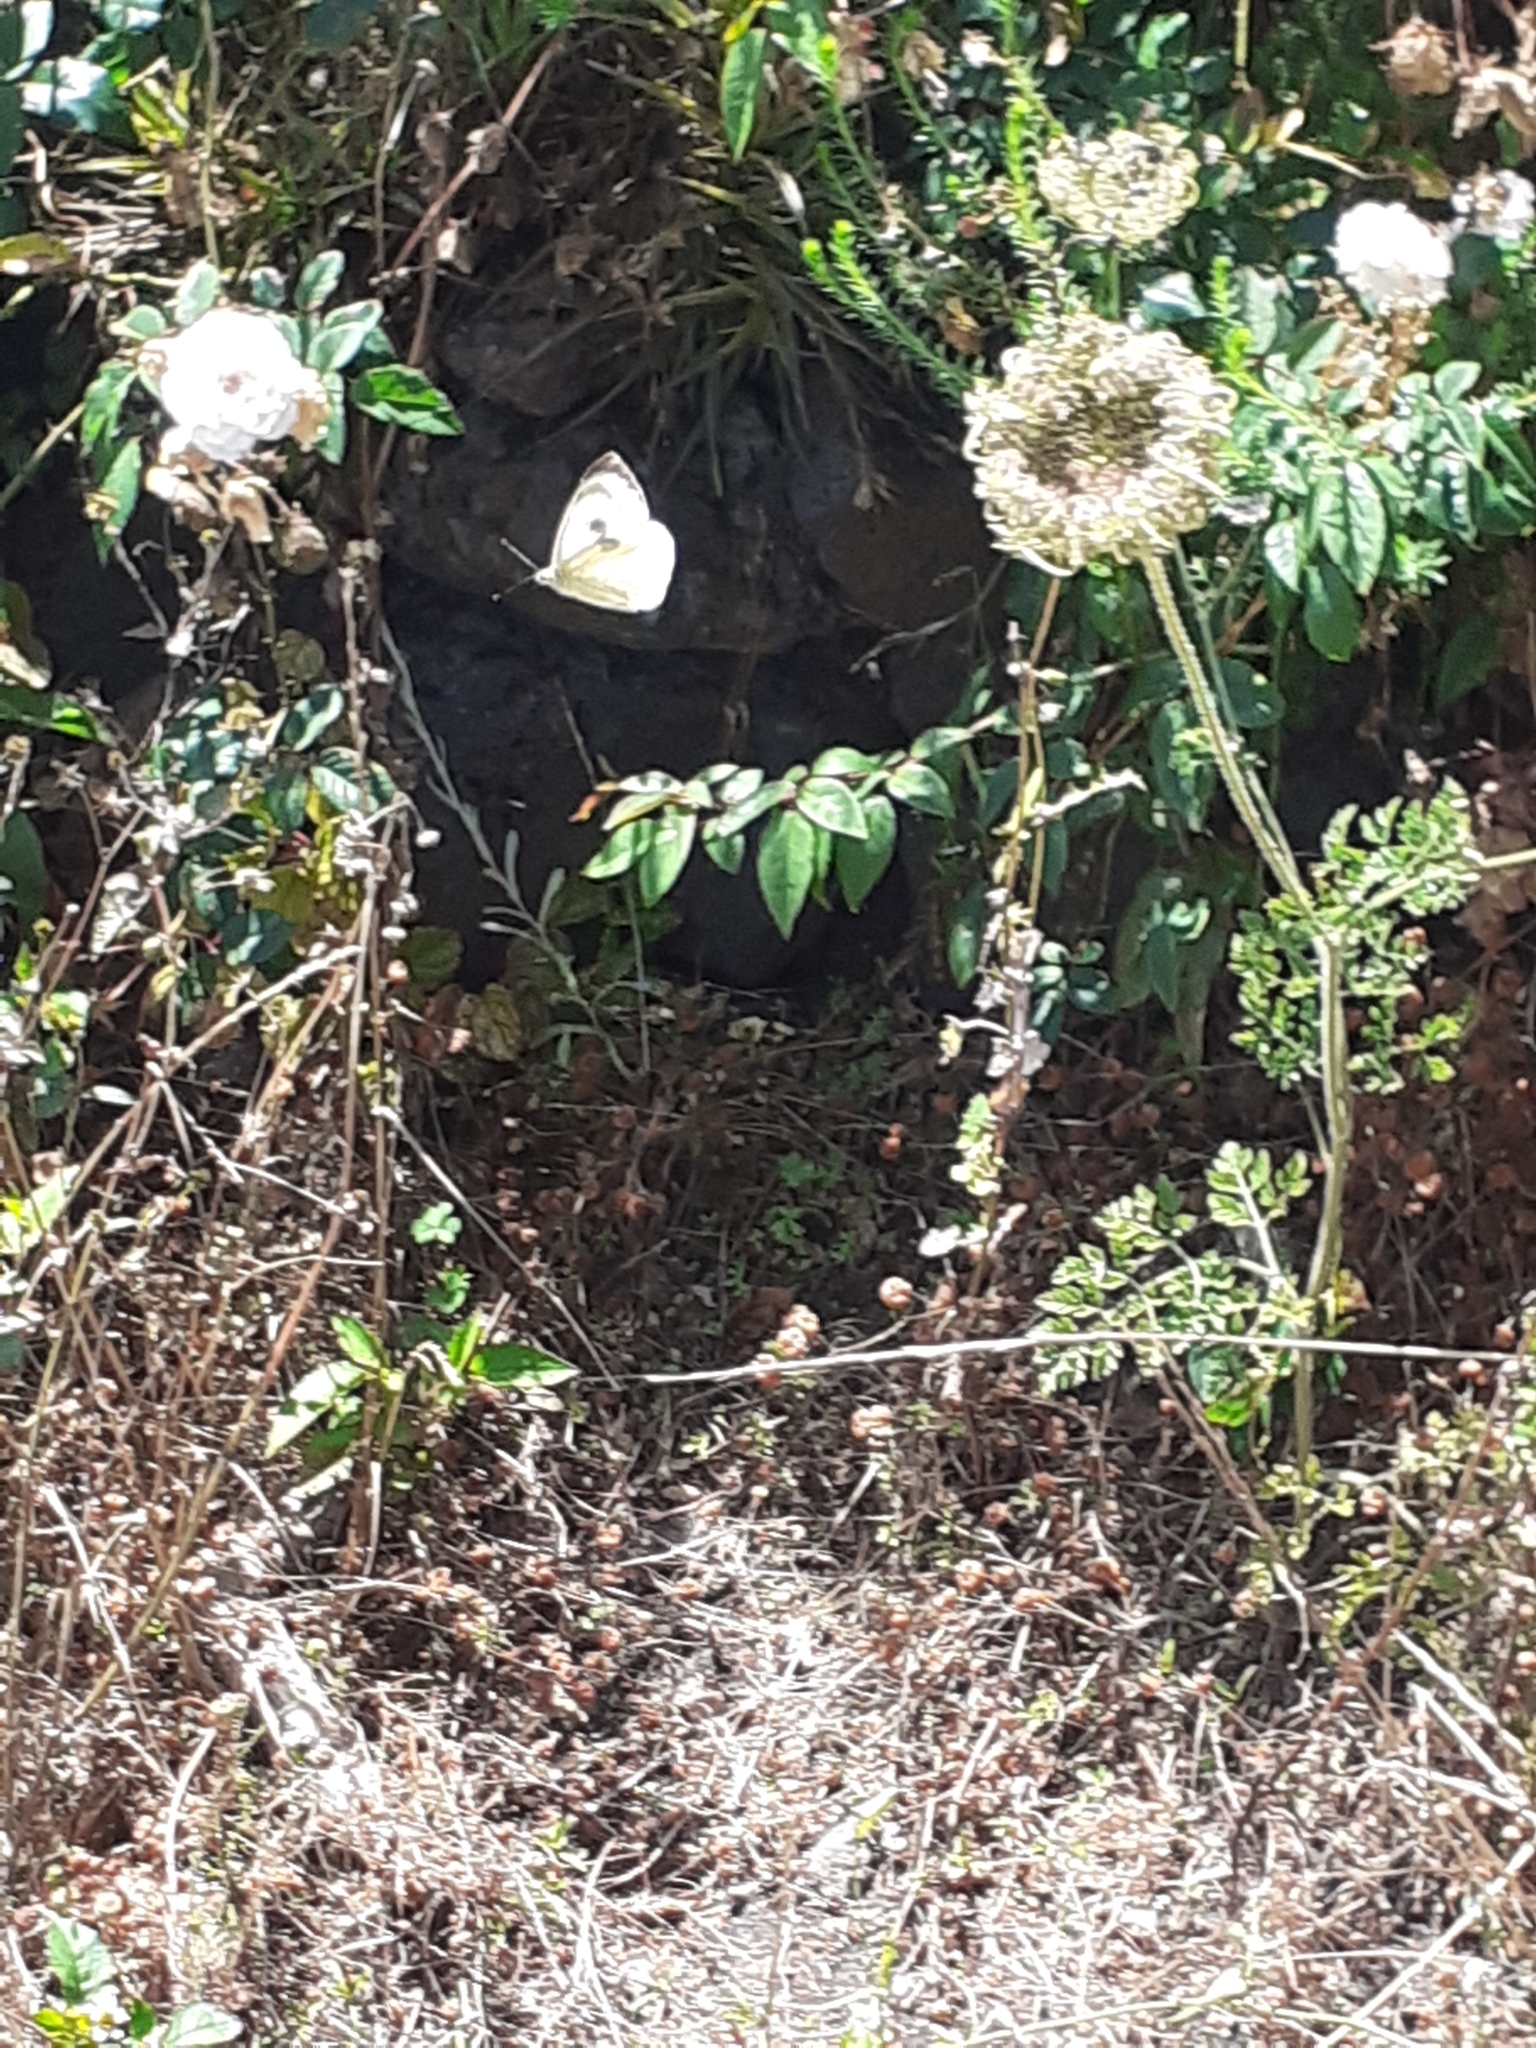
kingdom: Animalia
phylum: Arthropoda
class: Insecta
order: Lepidoptera
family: Pieridae
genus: Pieris
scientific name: Pieris cheiranthi
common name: Canary islands large white
